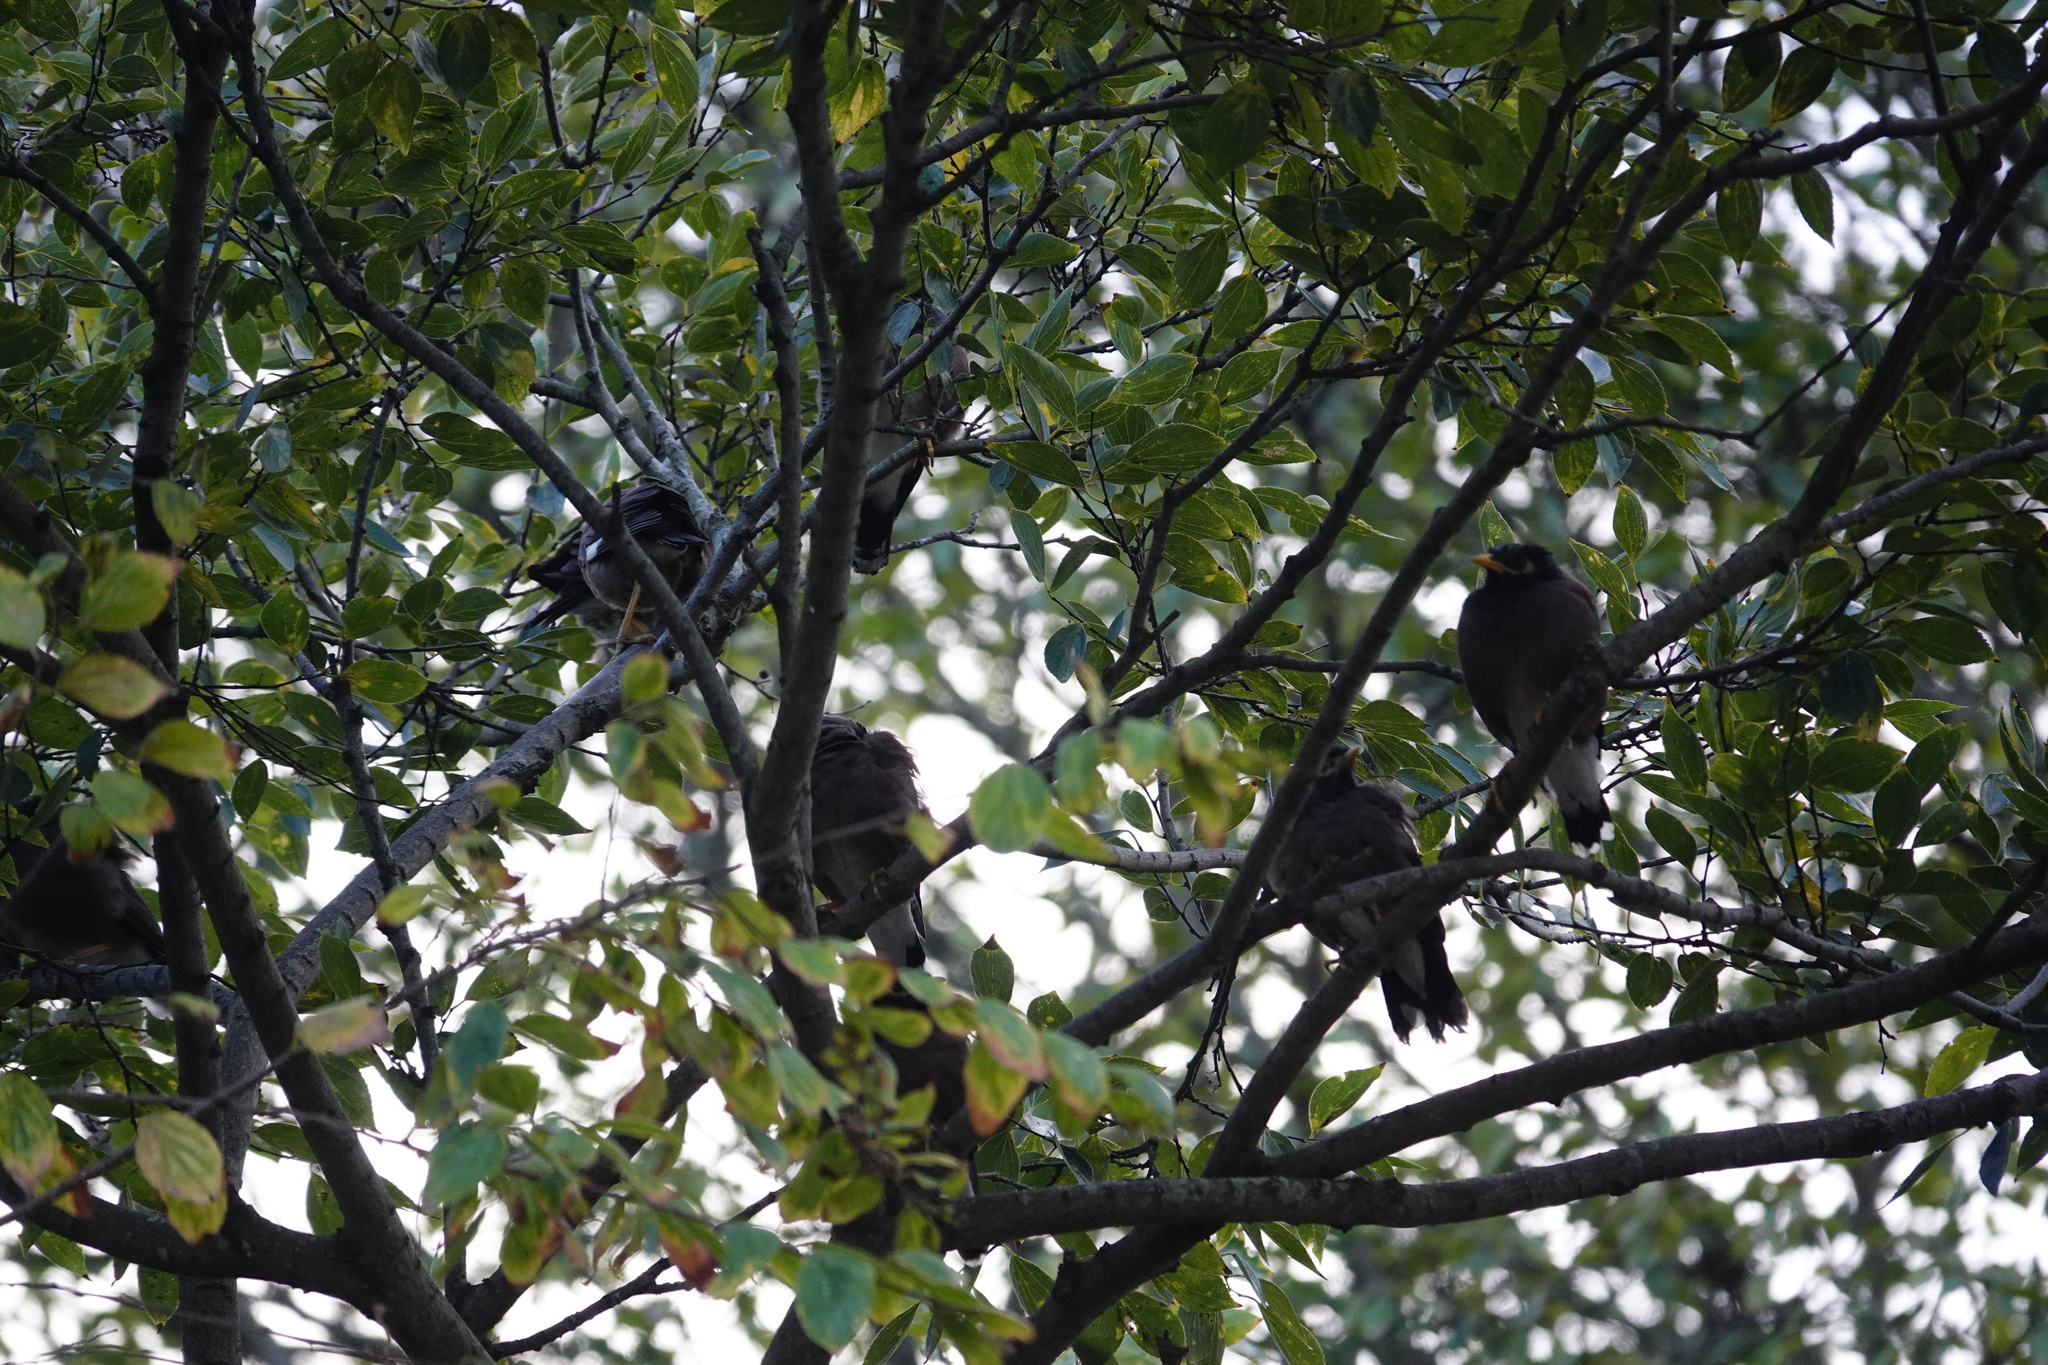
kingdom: Animalia
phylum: Chordata
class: Aves
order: Passeriformes
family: Sturnidae
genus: Acridotheres
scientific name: Acridotheres tristis
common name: Common myna
